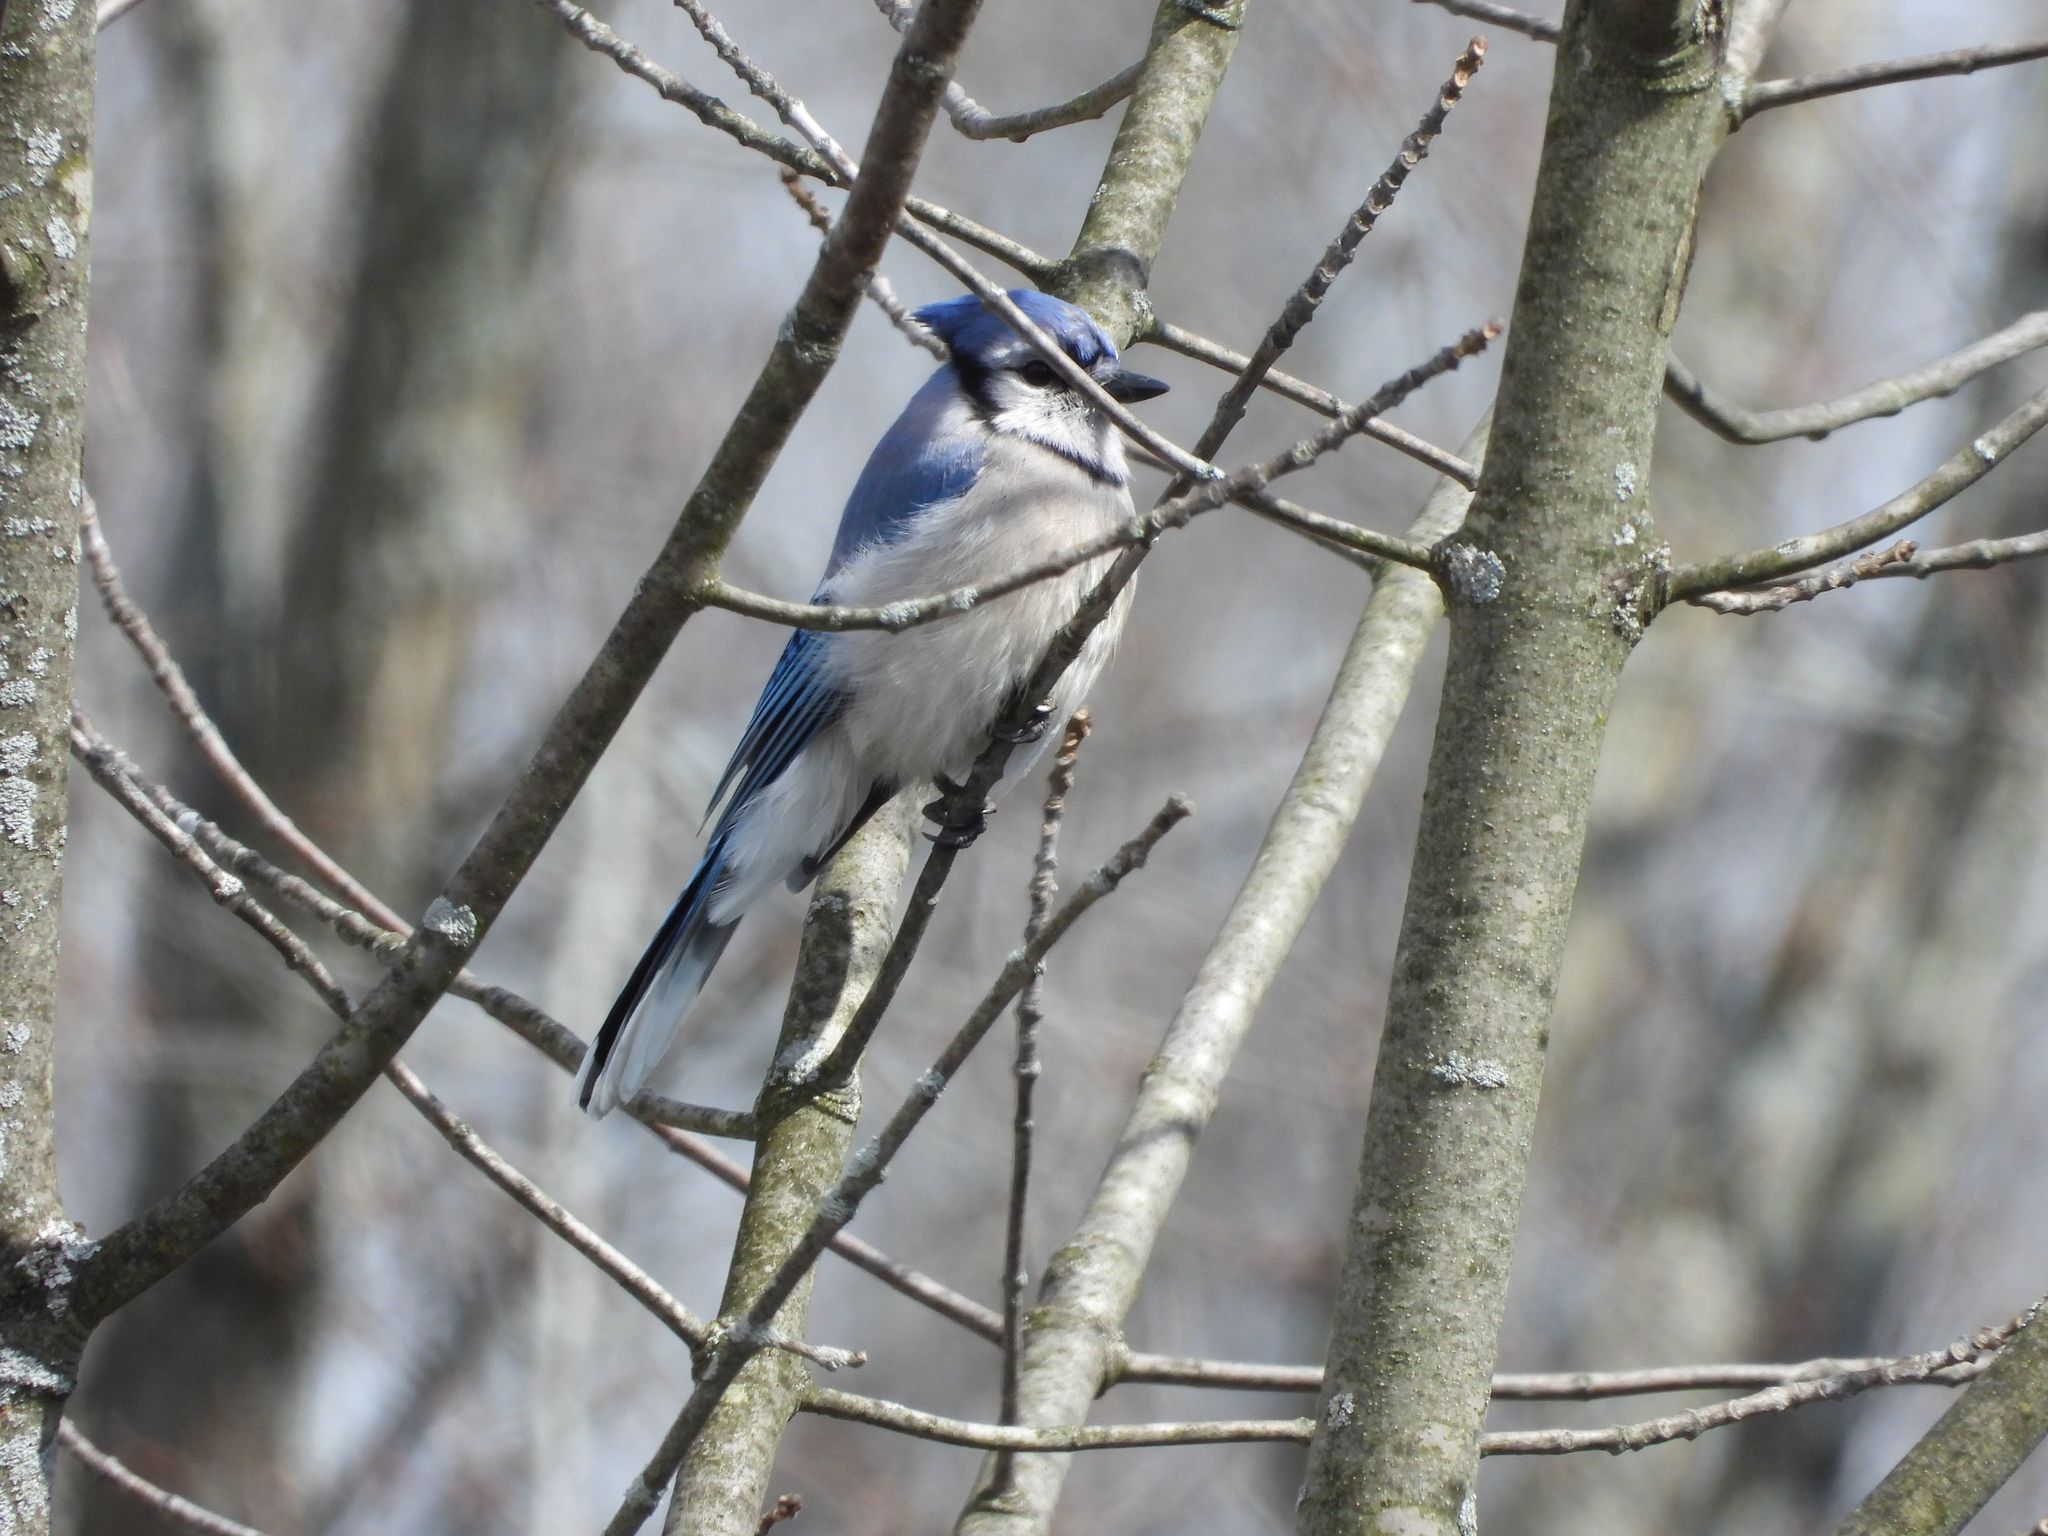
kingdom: Animalia
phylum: Chordata
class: Aves
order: Passeriformes
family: Corvidae
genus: Cyanocitta
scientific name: Cyanocitta cristata
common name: Blue jay
